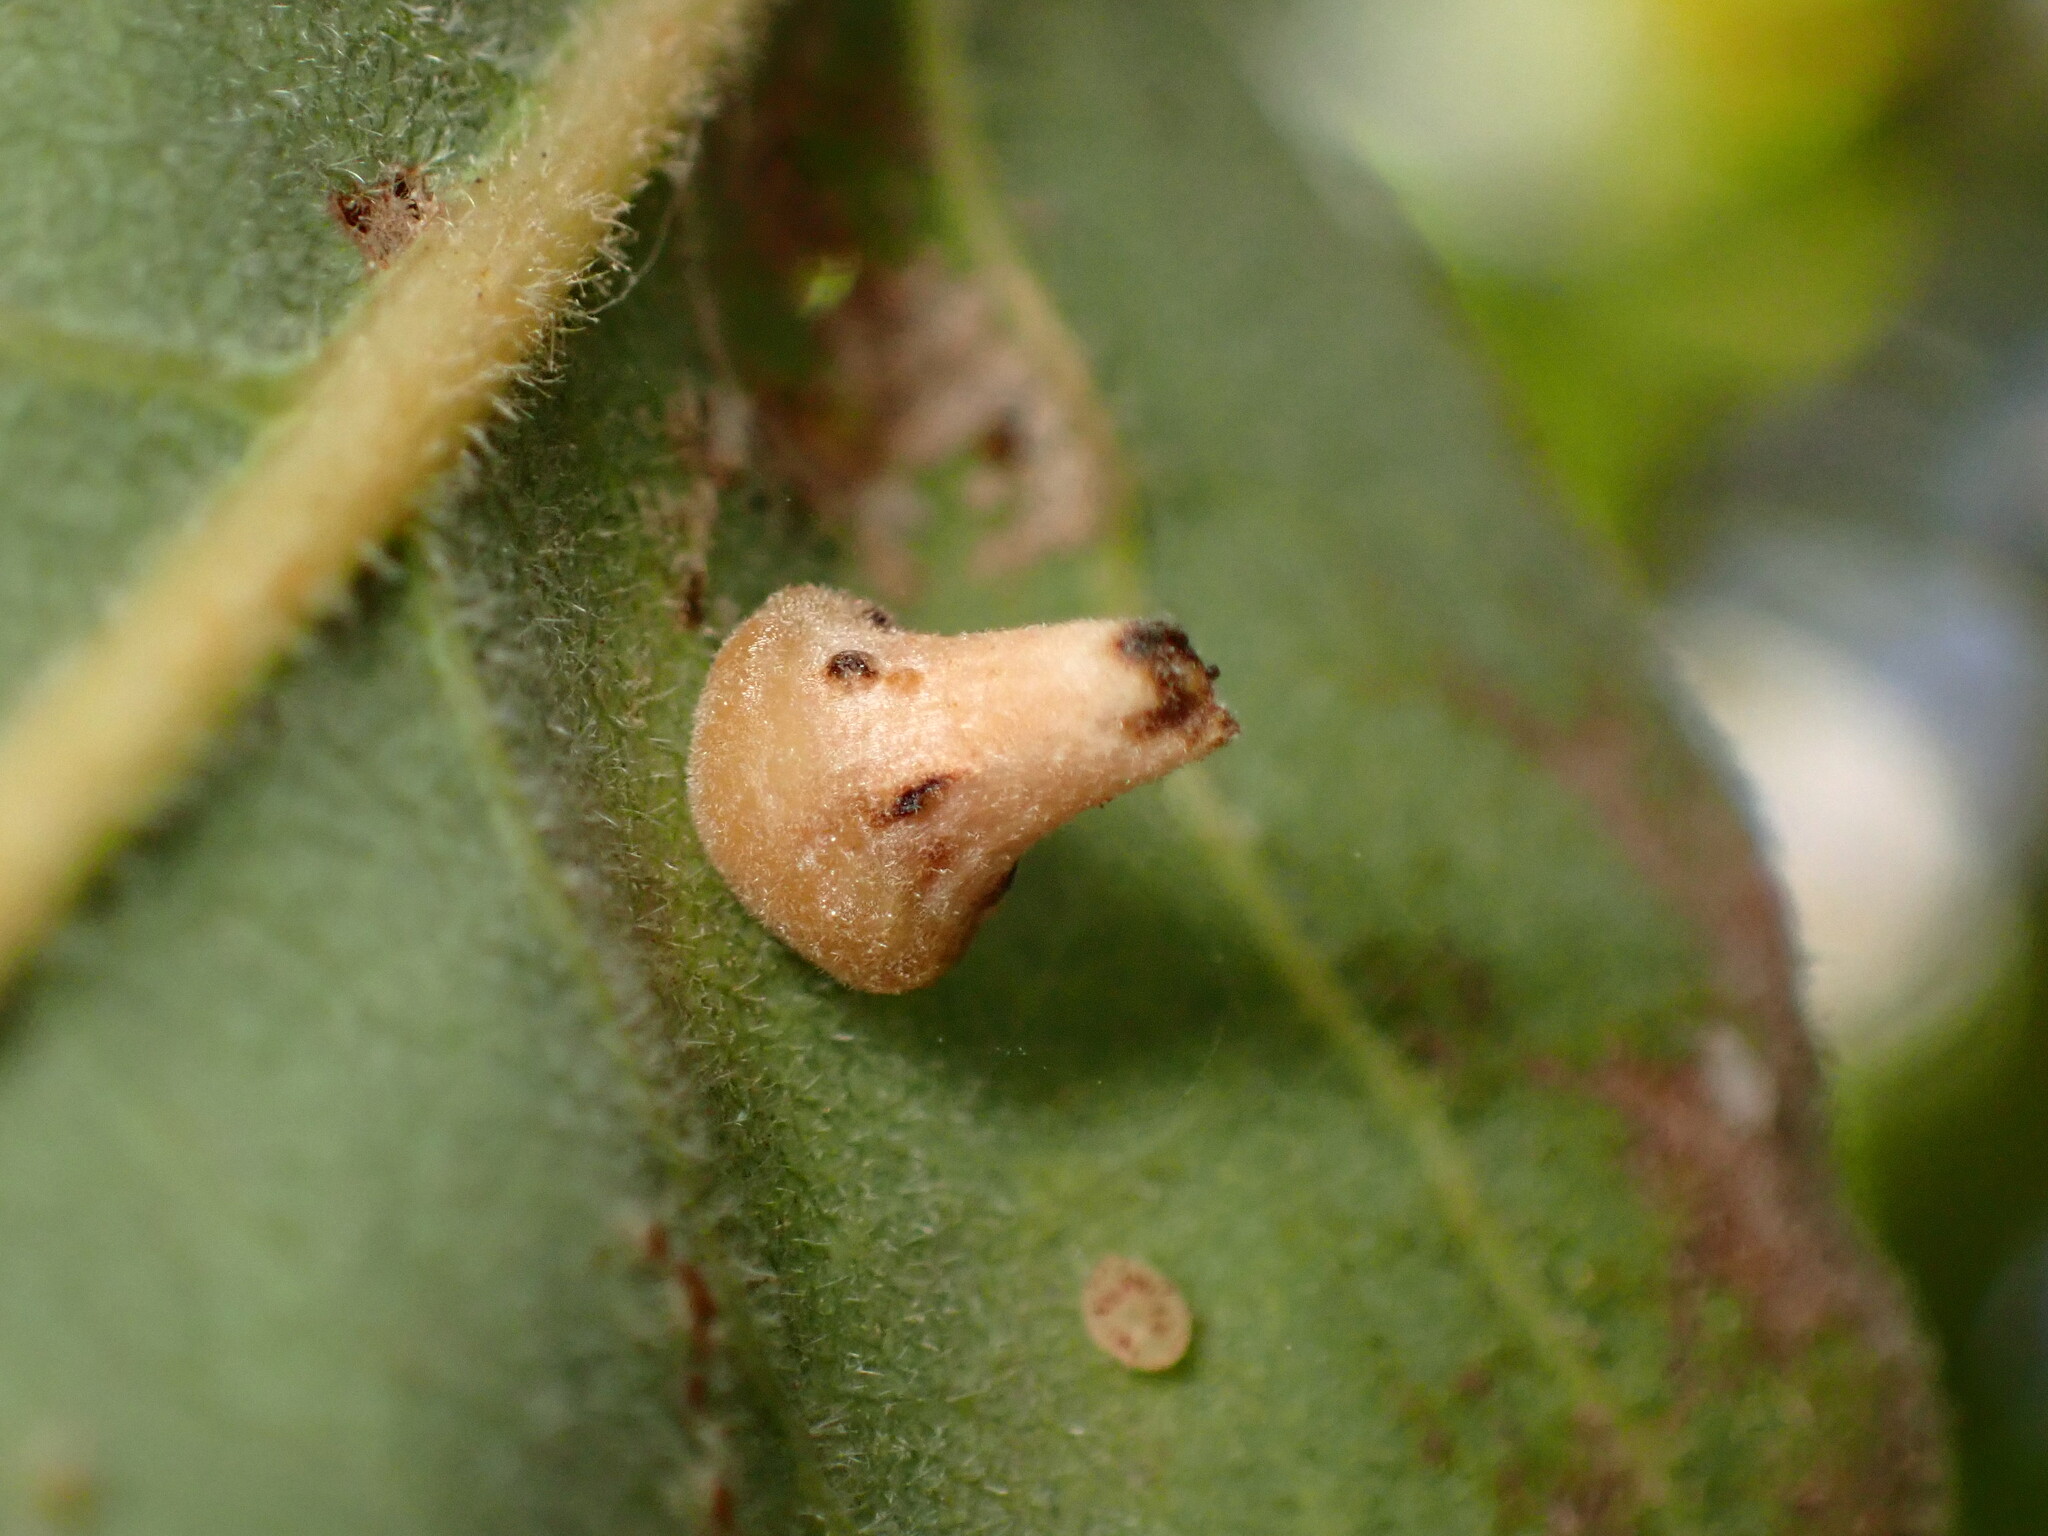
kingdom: Animalia
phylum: Arthropoda
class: Insecta
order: Hymenoptera
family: Cynipidae
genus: Andricus
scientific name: Andricus
